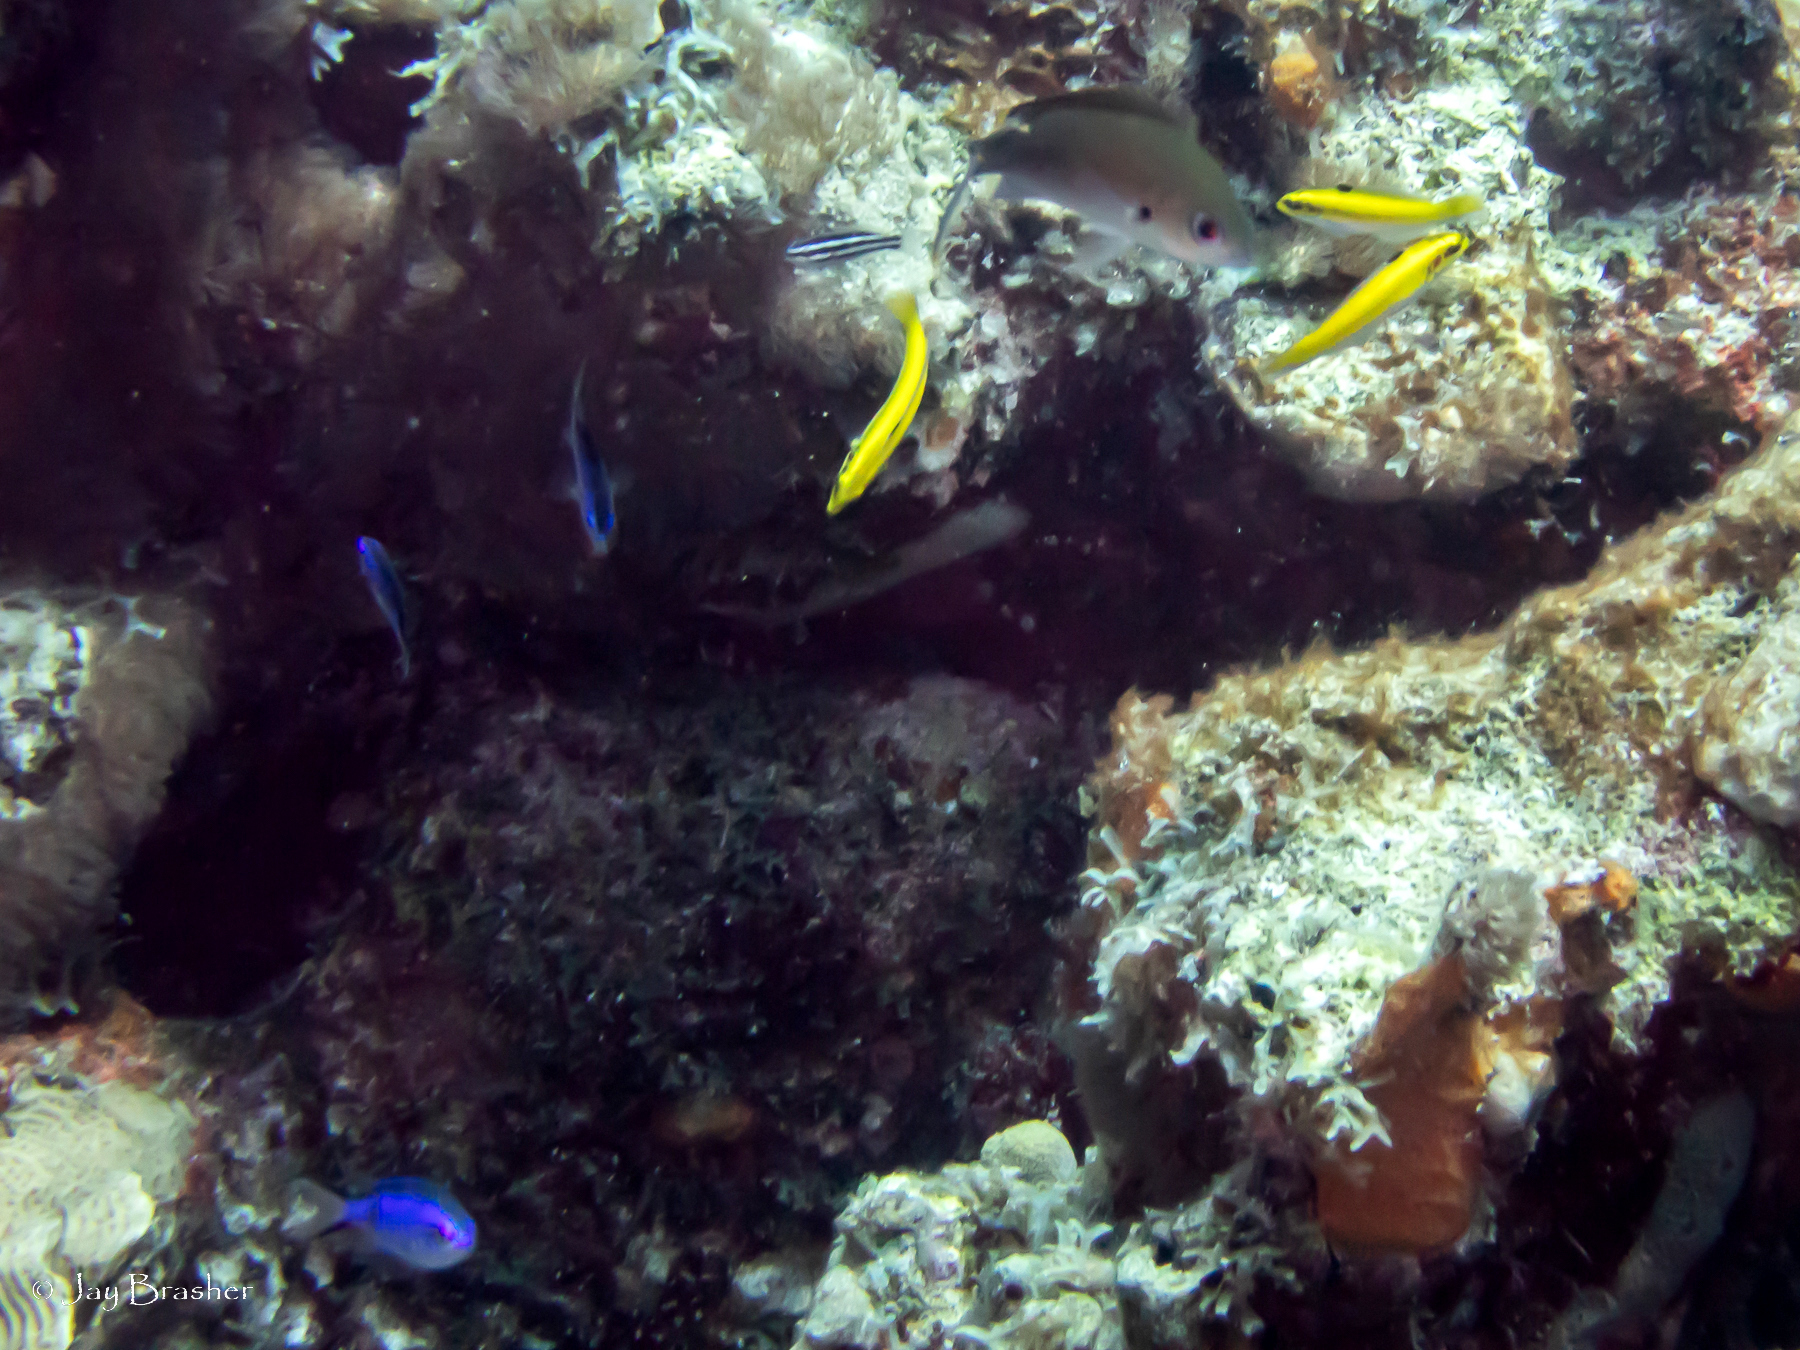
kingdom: Animalia
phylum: Chordata
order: Perciformes
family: Pomacentridae
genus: Chromis
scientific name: Chromis cyanea
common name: Blue chromis
